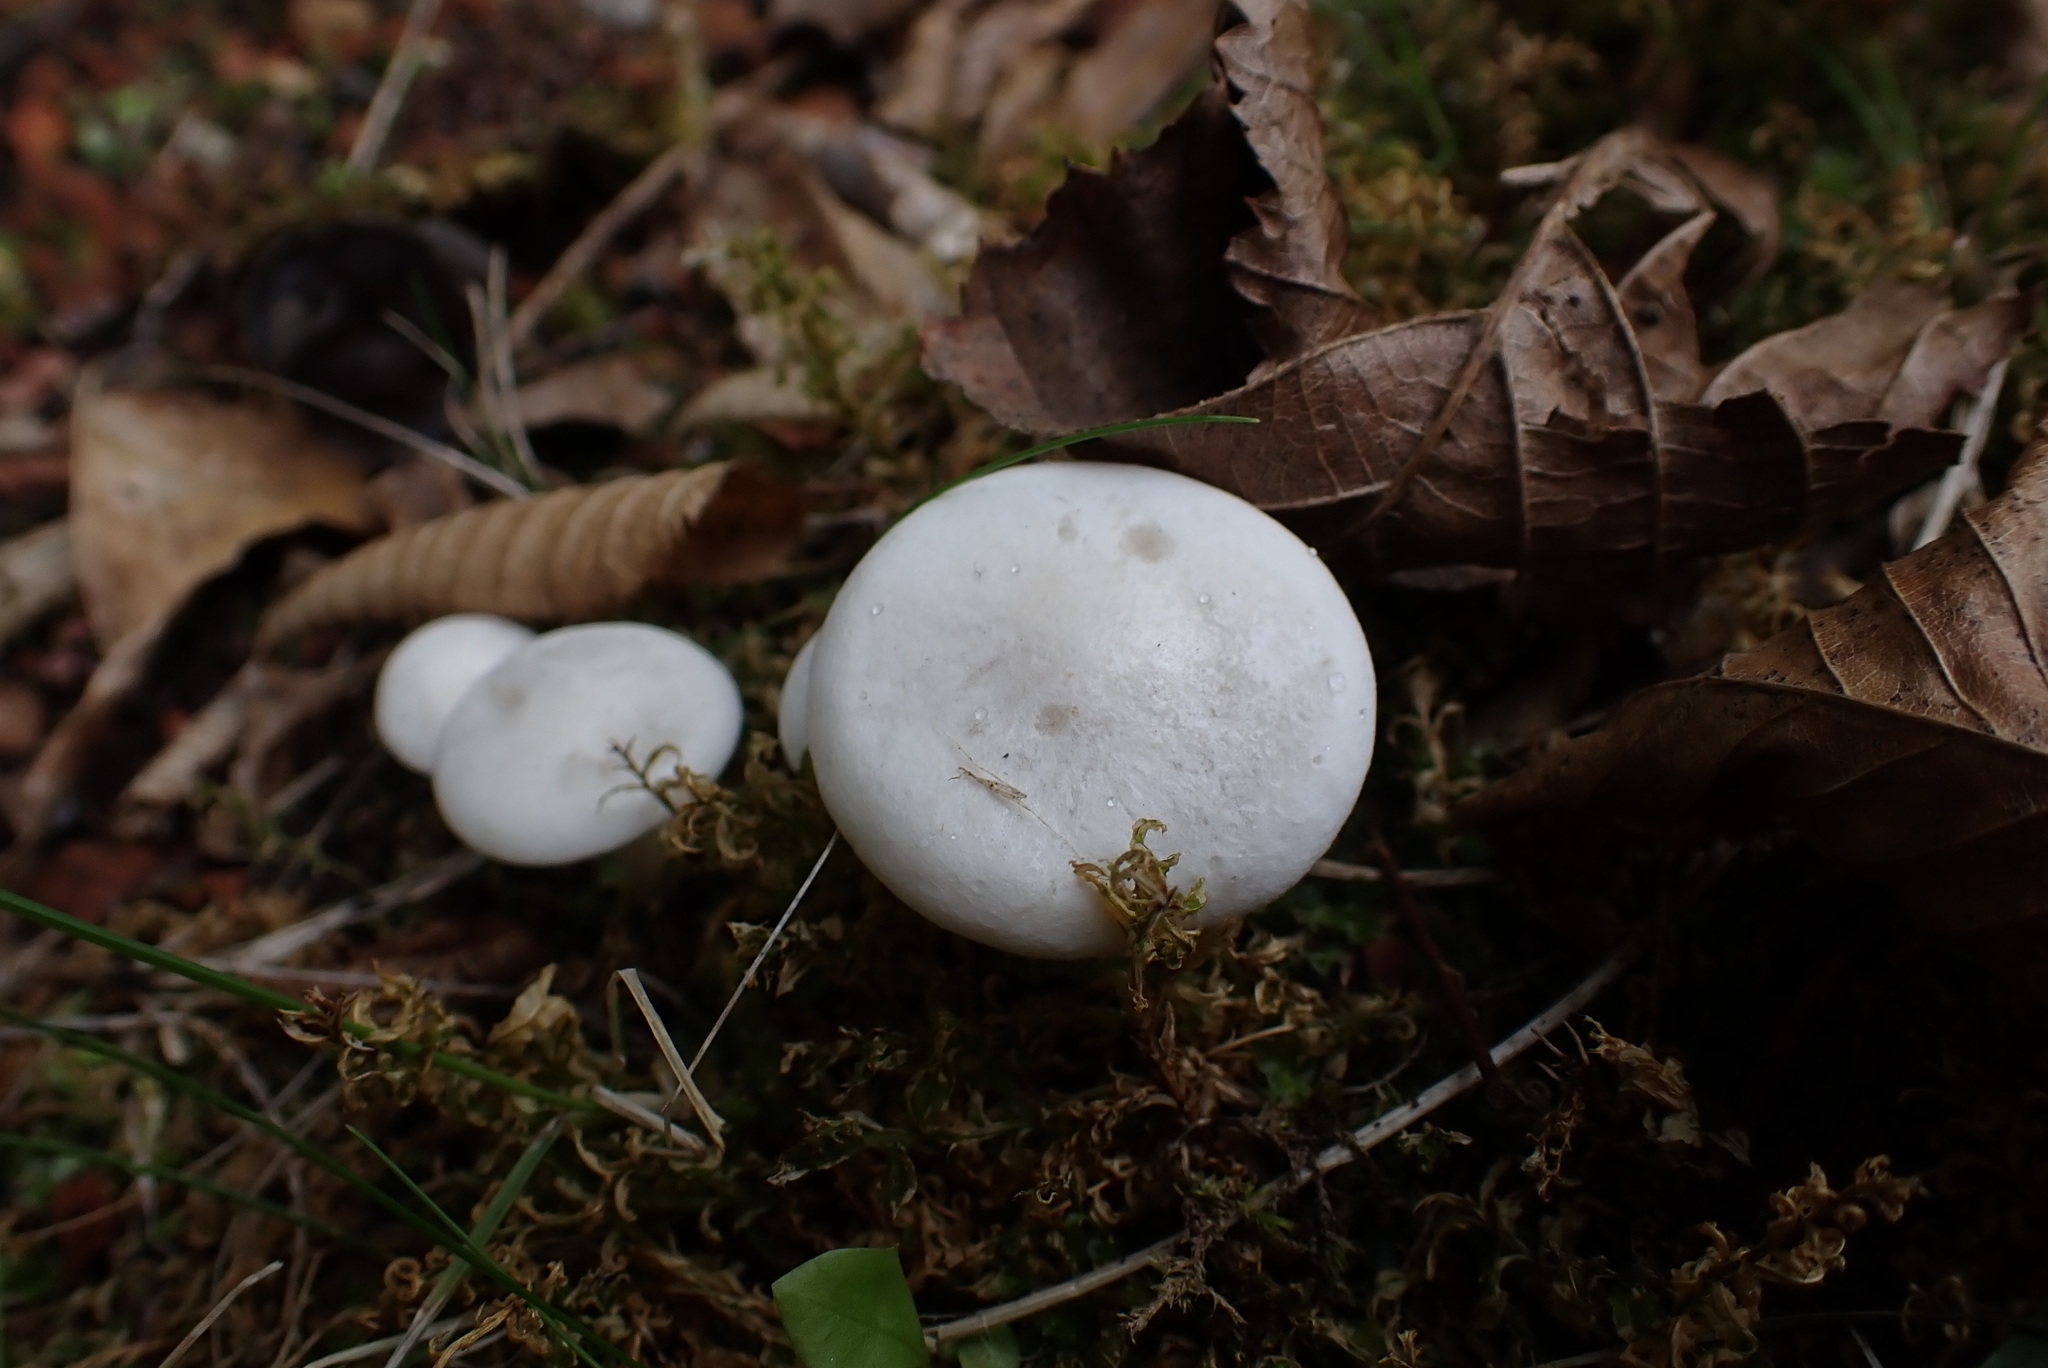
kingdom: Fungi
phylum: Basidiomycota
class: Agaricomycetes
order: Agaricales
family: Tricholomataceae
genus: Collybia
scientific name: Collybia
